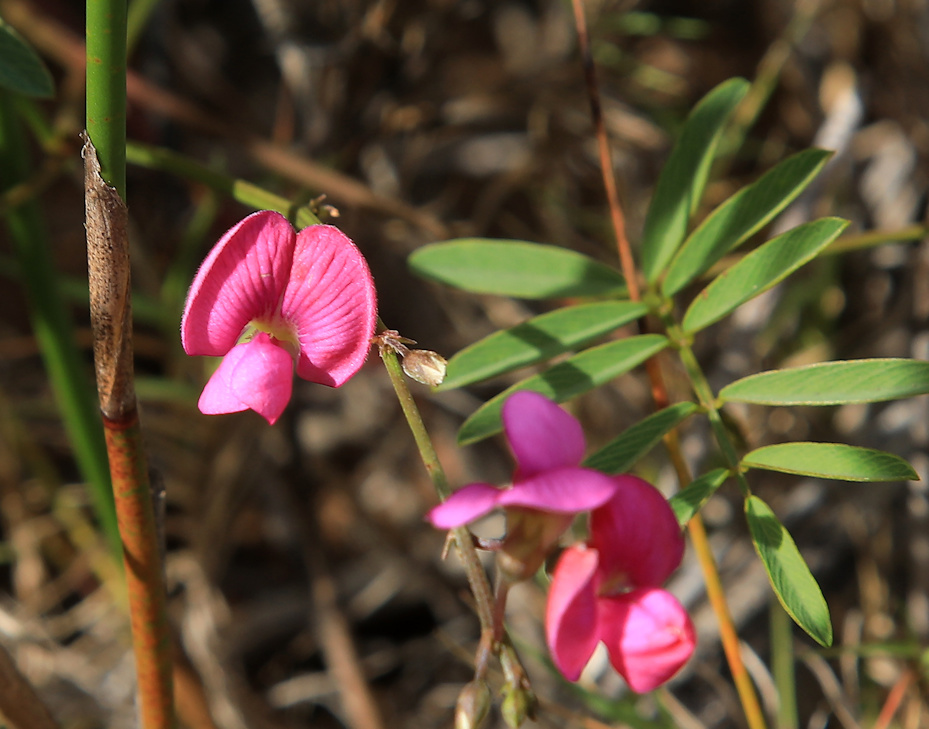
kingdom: Plantae
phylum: Tracheophyta
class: Magnoliopsida
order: Fabales
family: Fabaceae
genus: Tephrosia
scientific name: Tephrosia capensis
